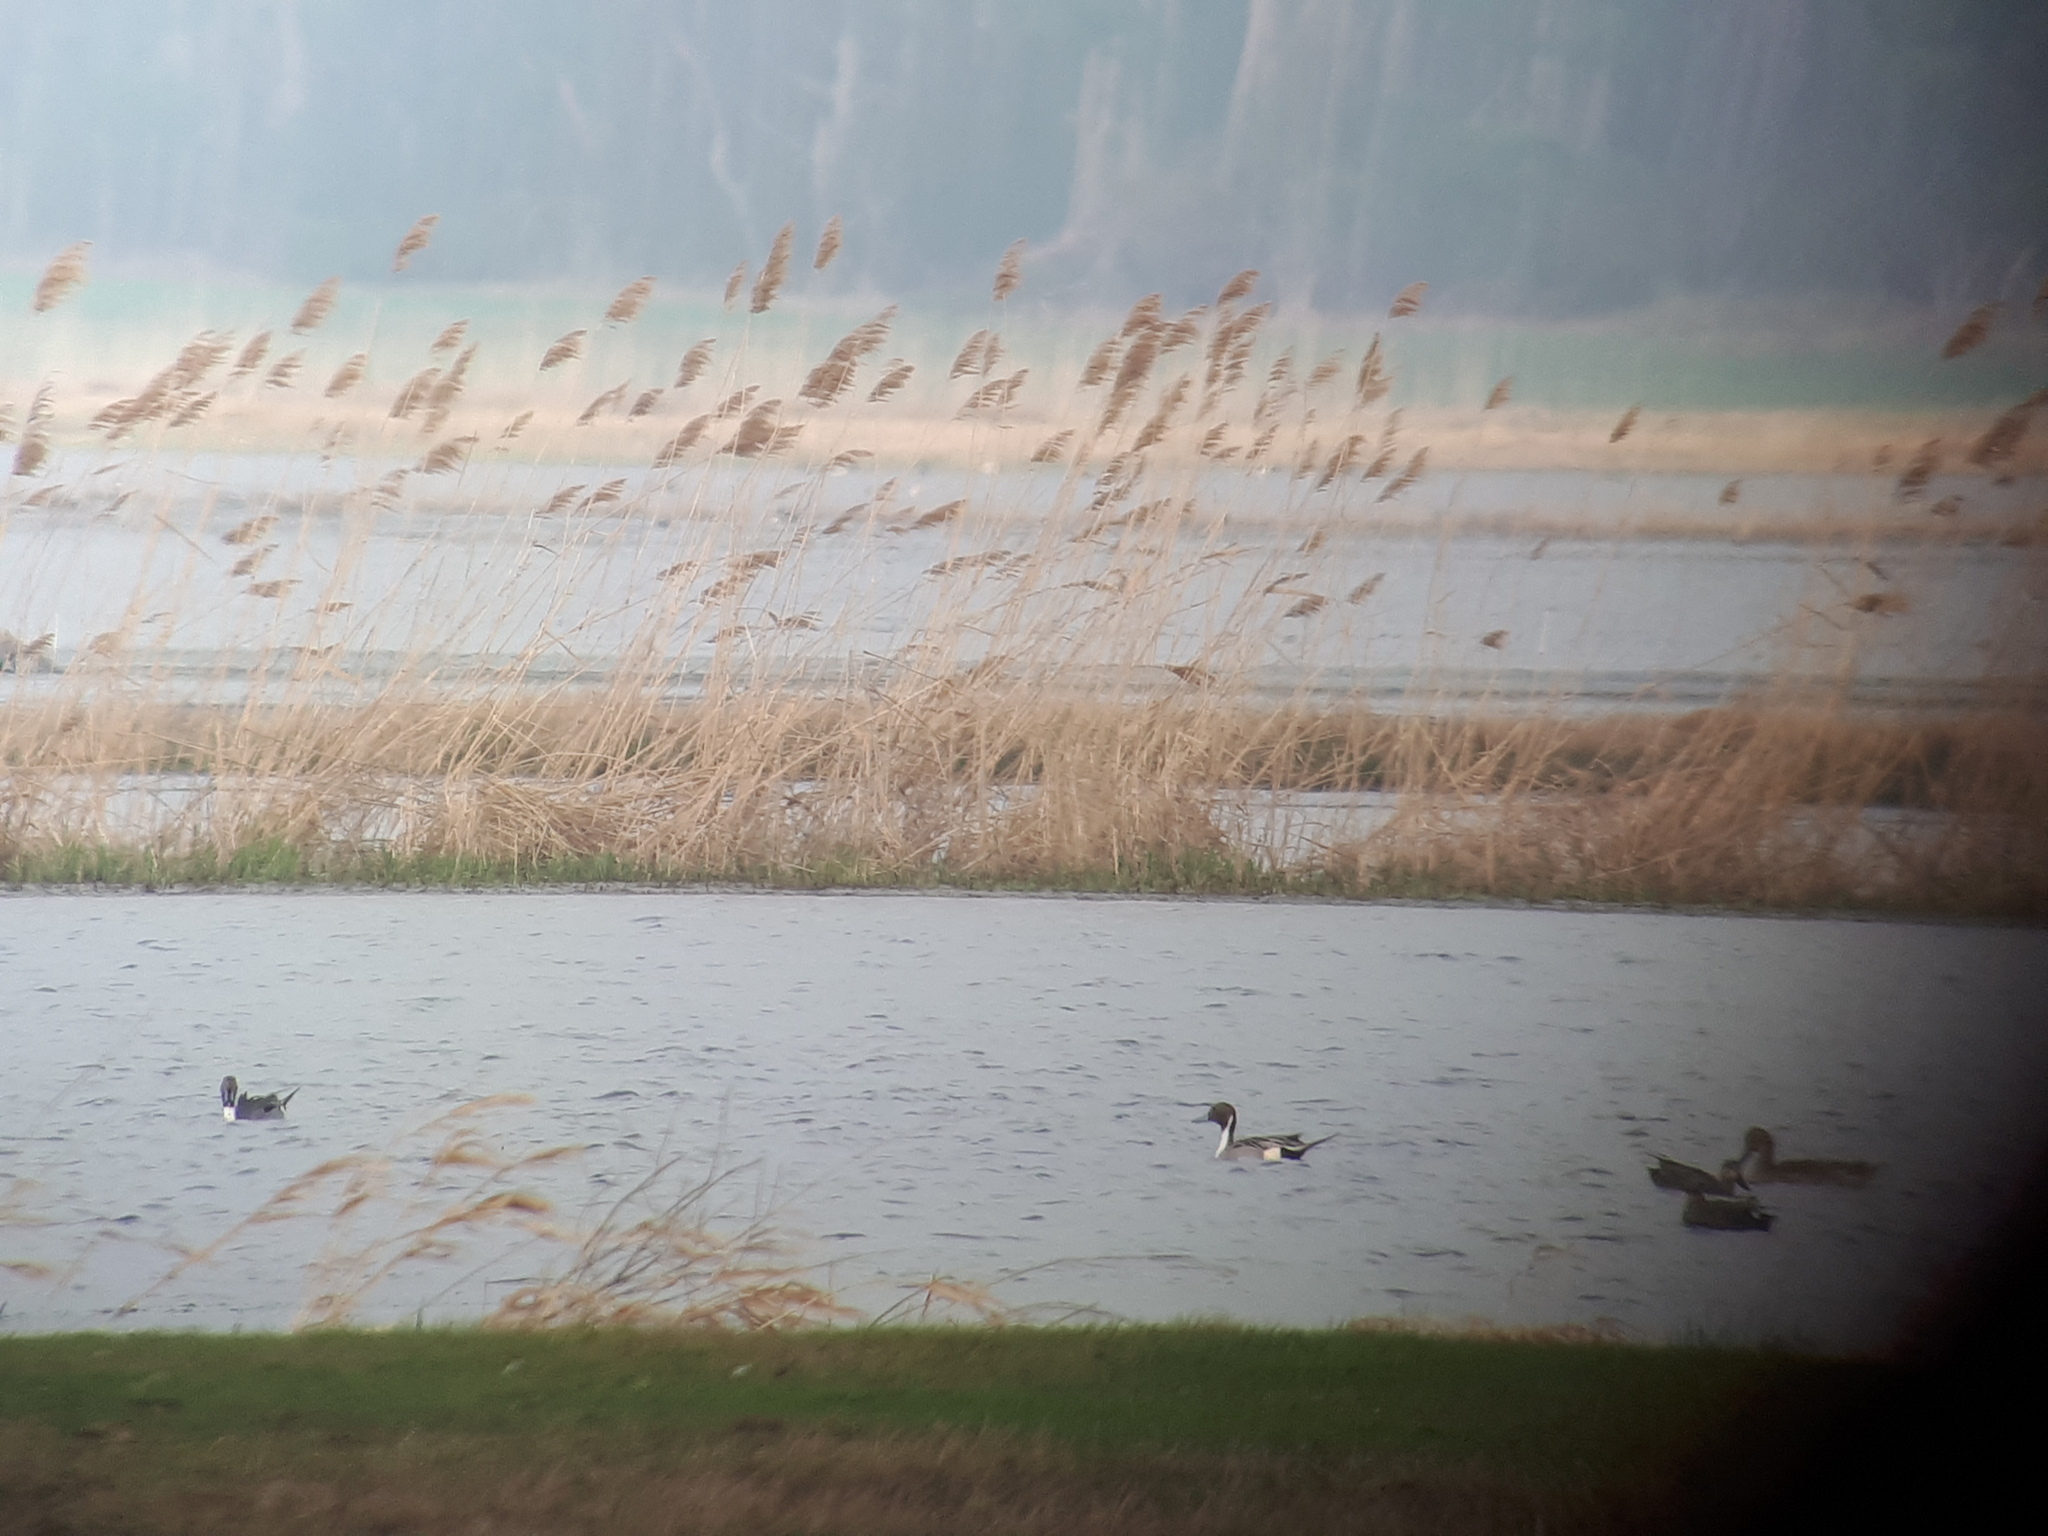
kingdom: Animalia
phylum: Chordata
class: Aves
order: Anseriformes
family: Anatidae
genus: Anas
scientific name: Anas acuta
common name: Northern pintail
